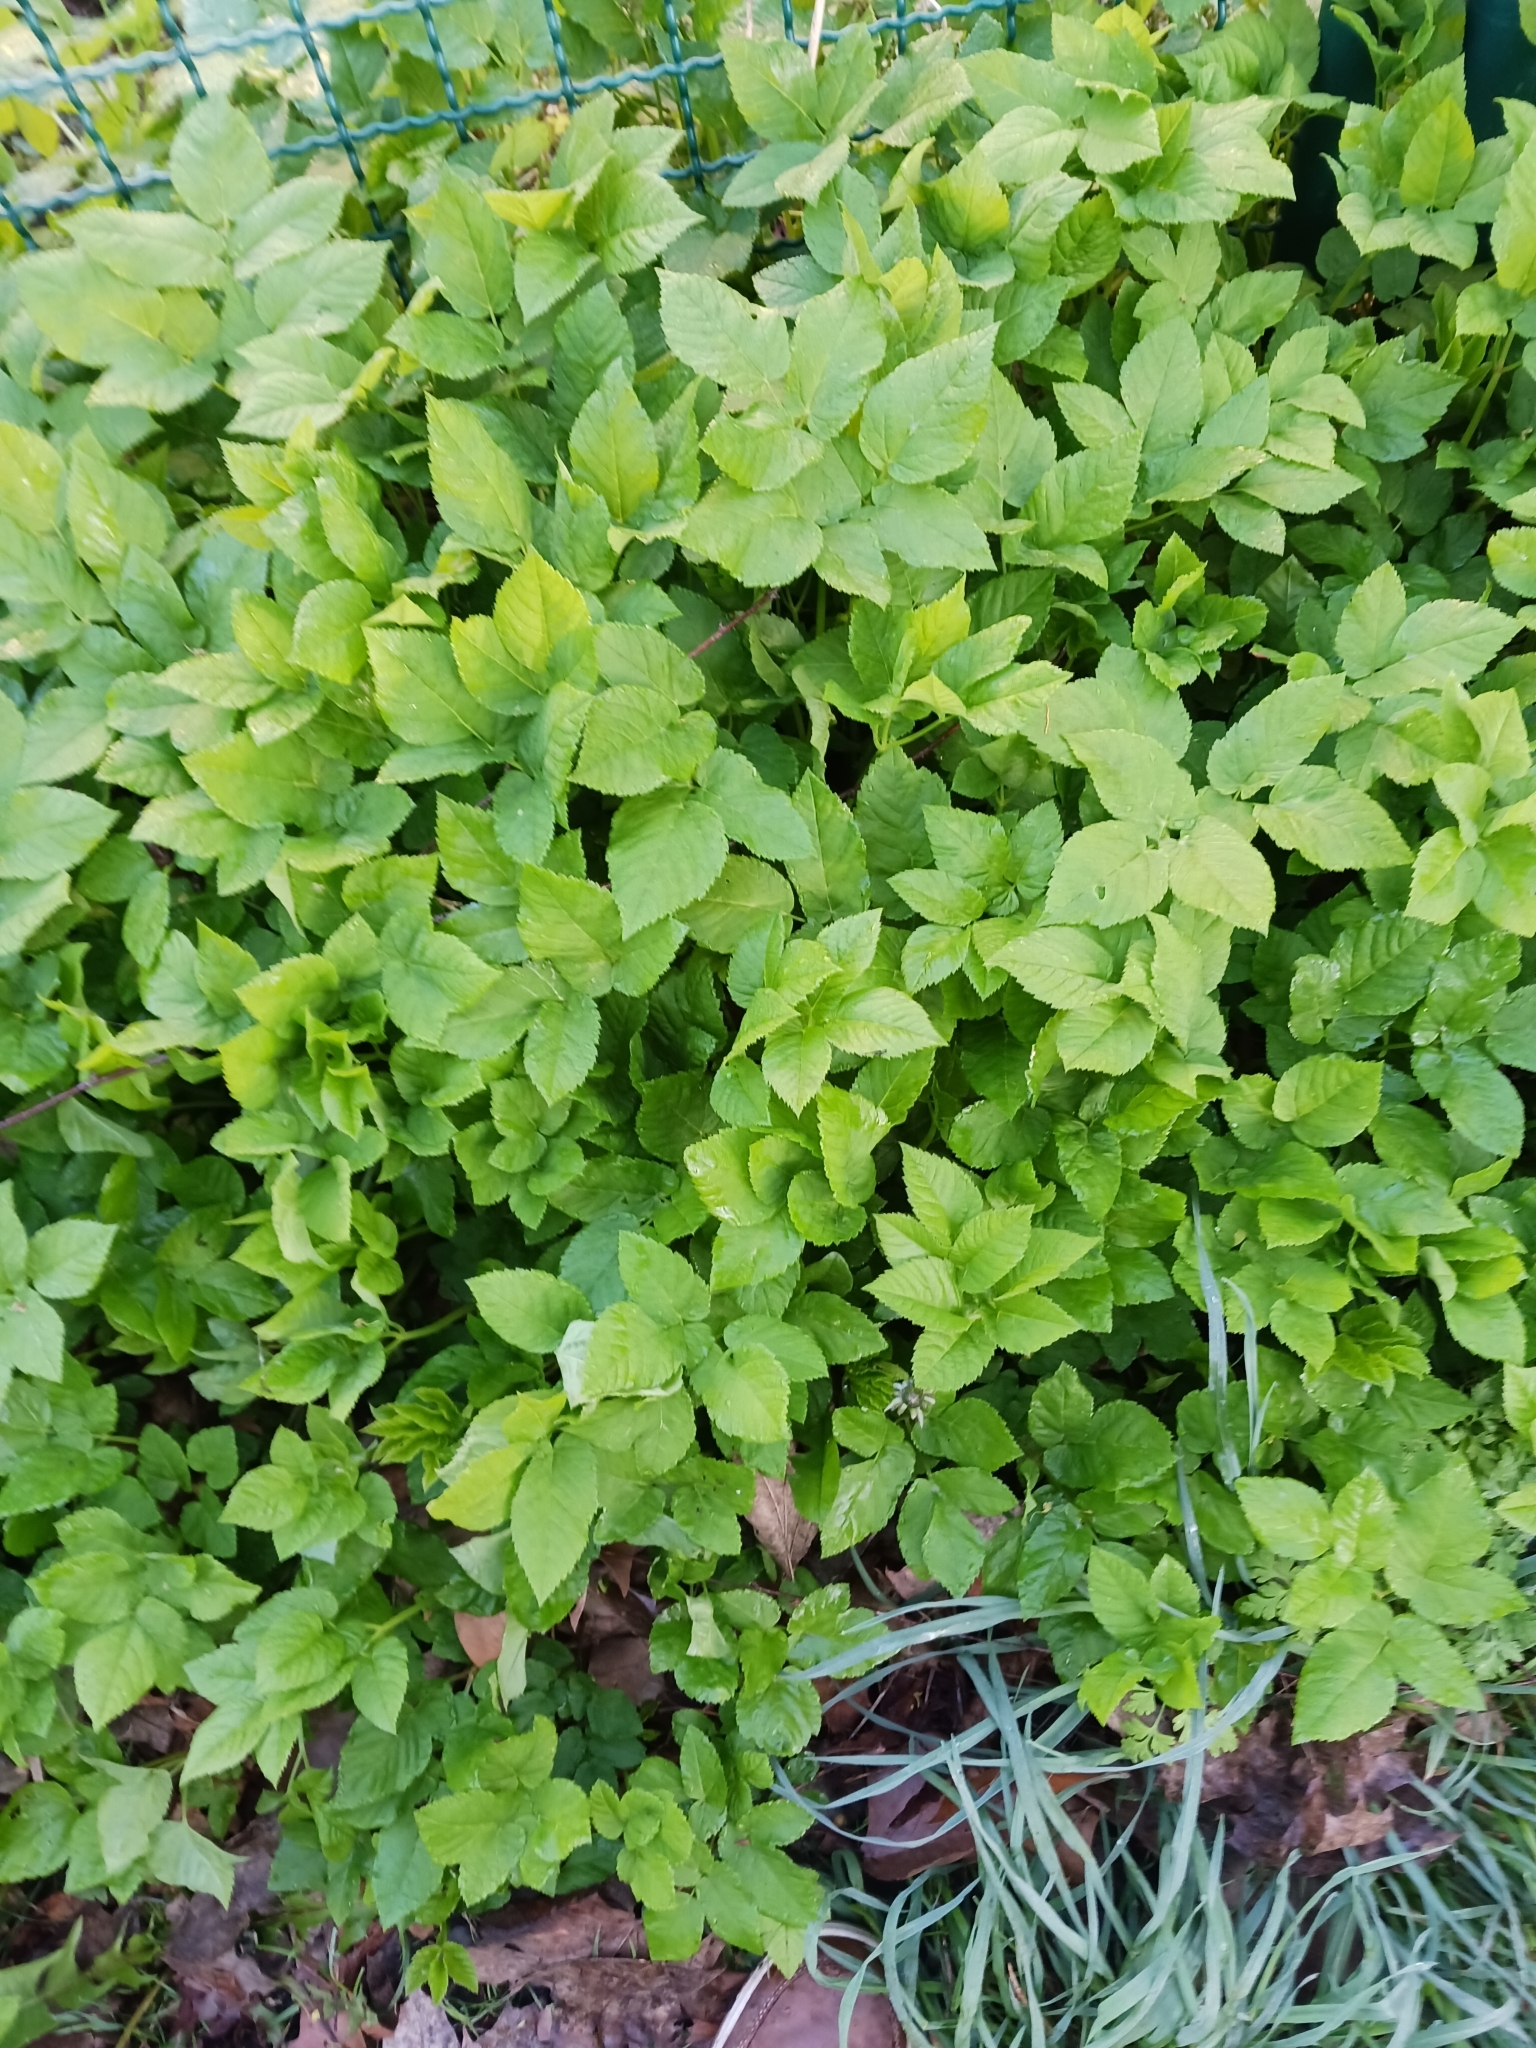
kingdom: Plantae
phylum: Tracheophyta
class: Magnoliopsida
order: Apiales
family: Apiaceae
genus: Aegopodium
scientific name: Aegopodium podagraria
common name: Ground-elder
